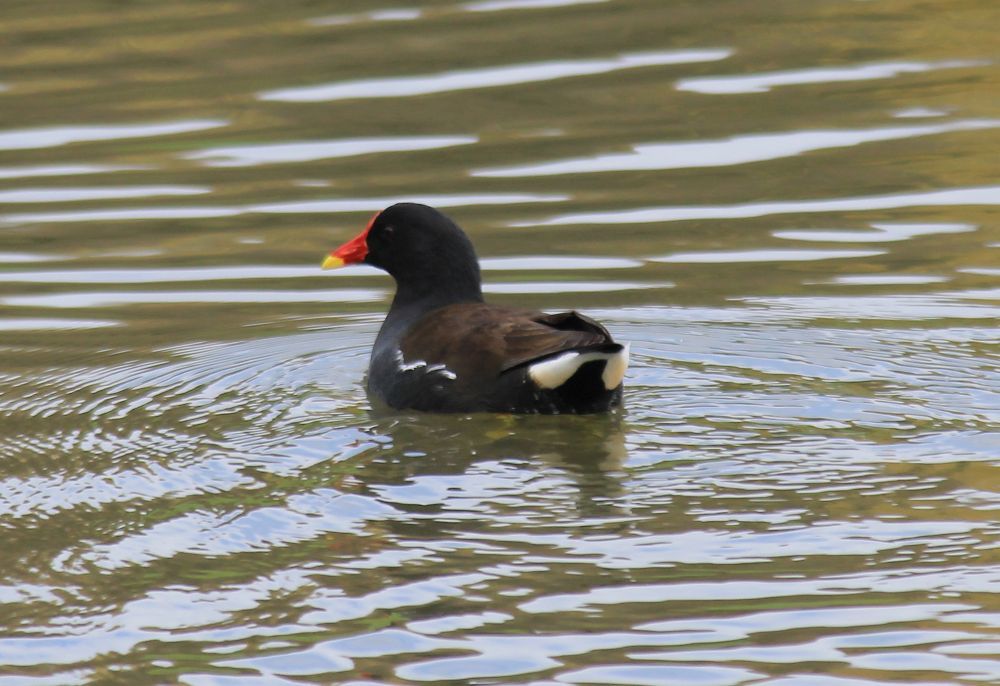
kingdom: Animalia
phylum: Chordata
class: Aves
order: Gruiformes
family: Rallidae
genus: Gallinula
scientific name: Gallinula chloropus
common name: Common moorhen
